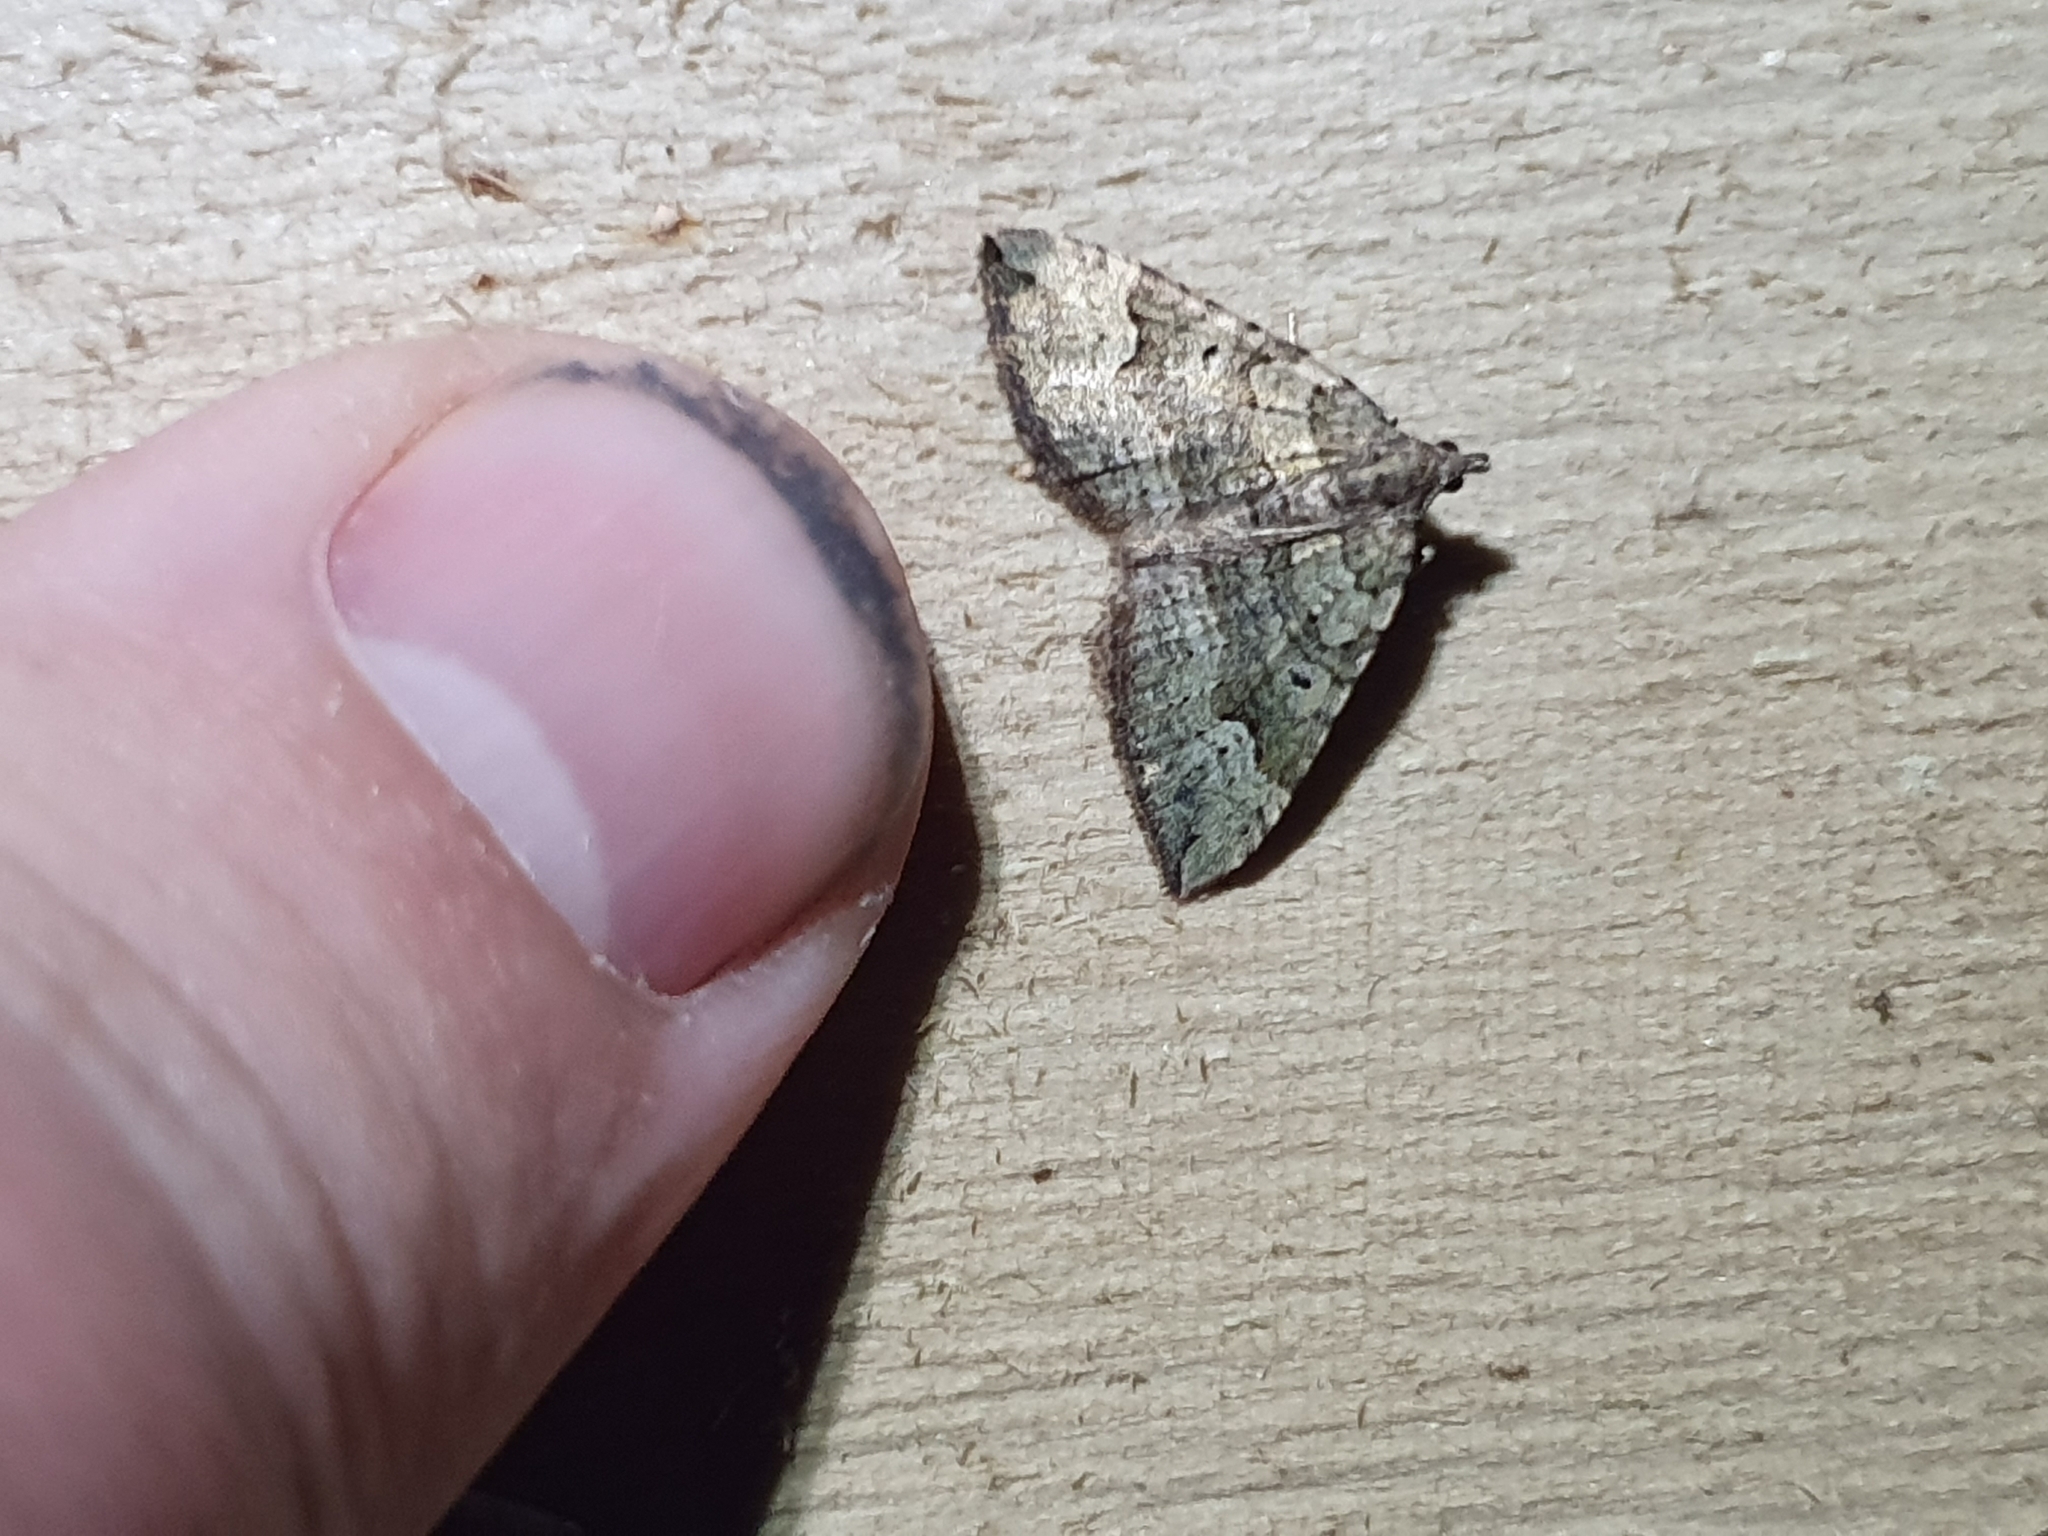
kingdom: Animalia
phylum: Arthropoda
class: Insecta
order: Lepidoptera
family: Geometridae
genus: Epyaxa
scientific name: Epyaxa rosearia
